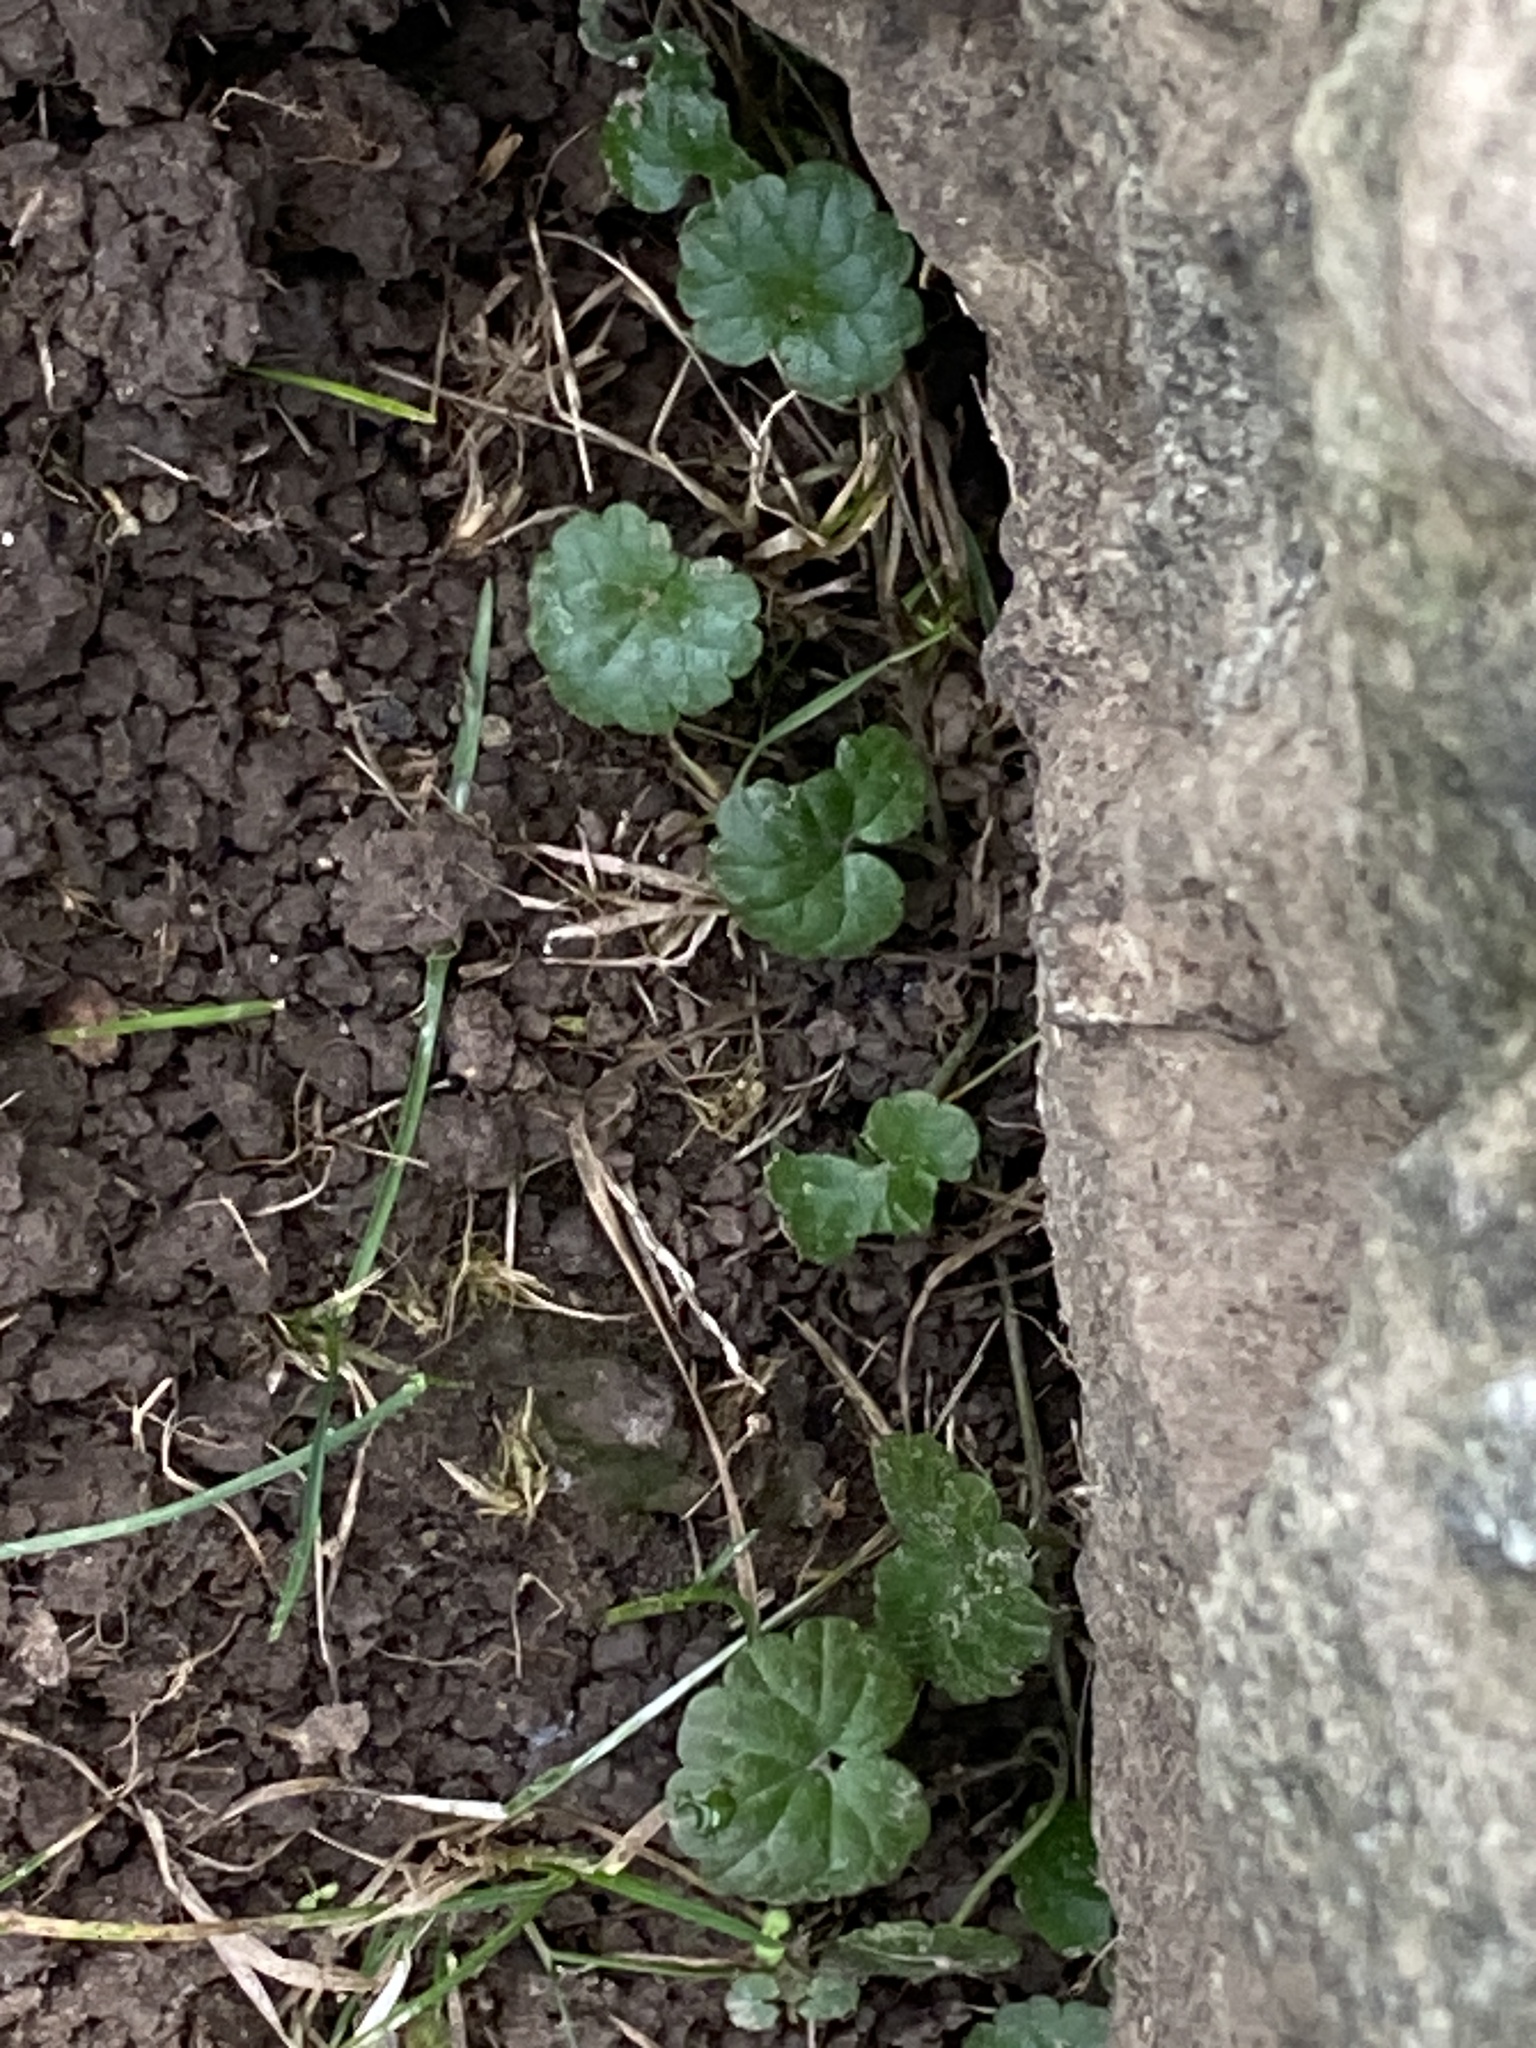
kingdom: Plantae
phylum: Tracheophyta
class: Magnoliopsida
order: Lamiales
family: Lamiaceae
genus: Glechoma
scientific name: Glechoma hederacea
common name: Ground ivy
